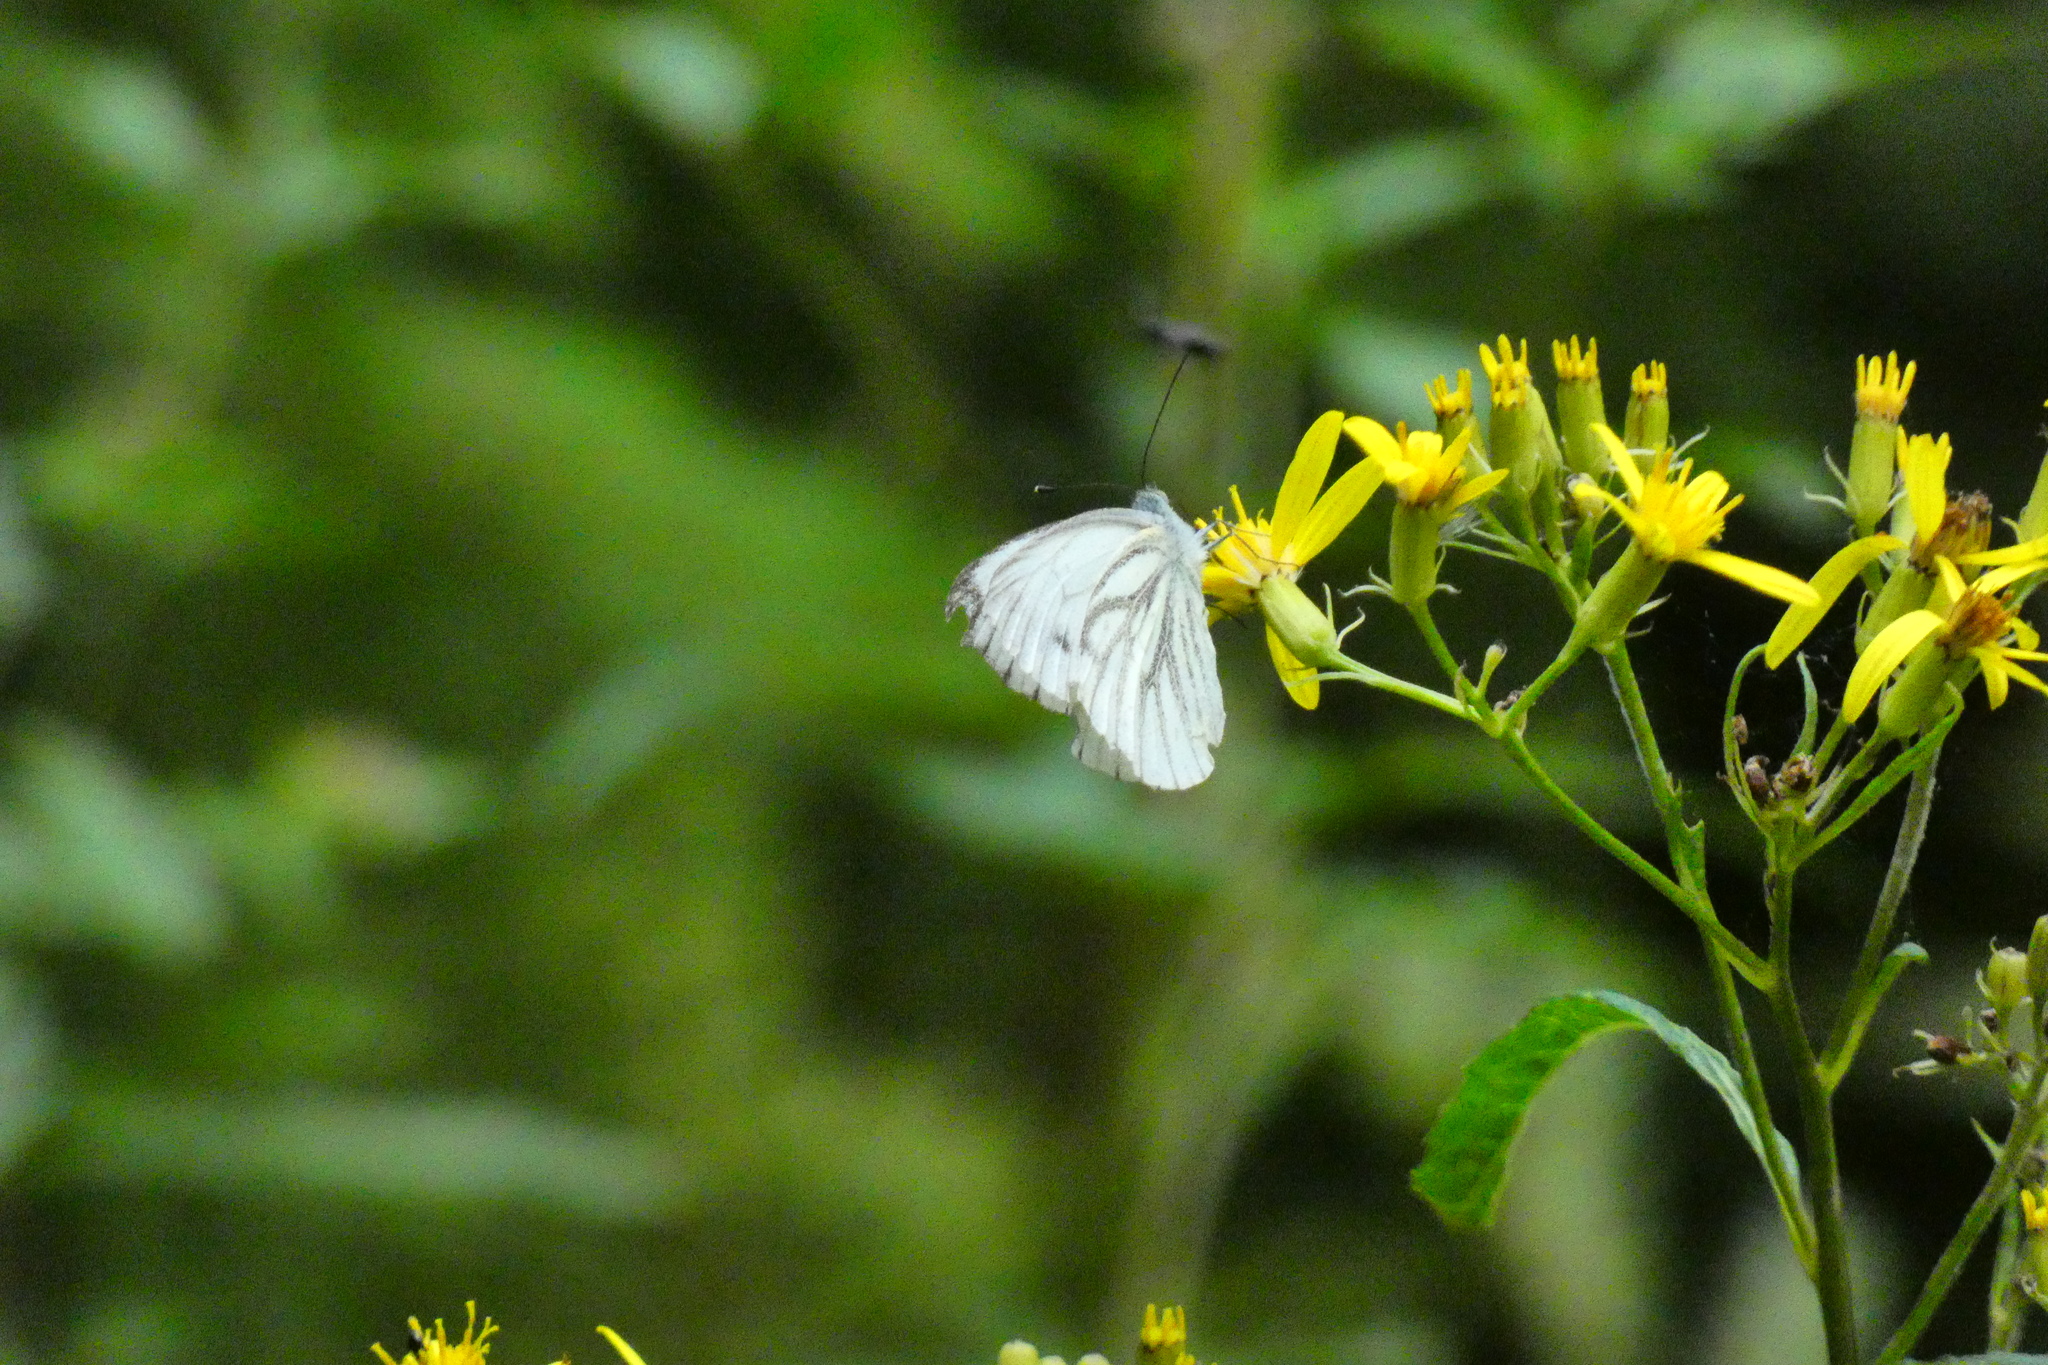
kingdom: Animalia
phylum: Arthropoda
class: Insecta
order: Lepidoptera
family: Pieridae
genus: Pieris
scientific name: Pieris napi
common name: Green-veined white
